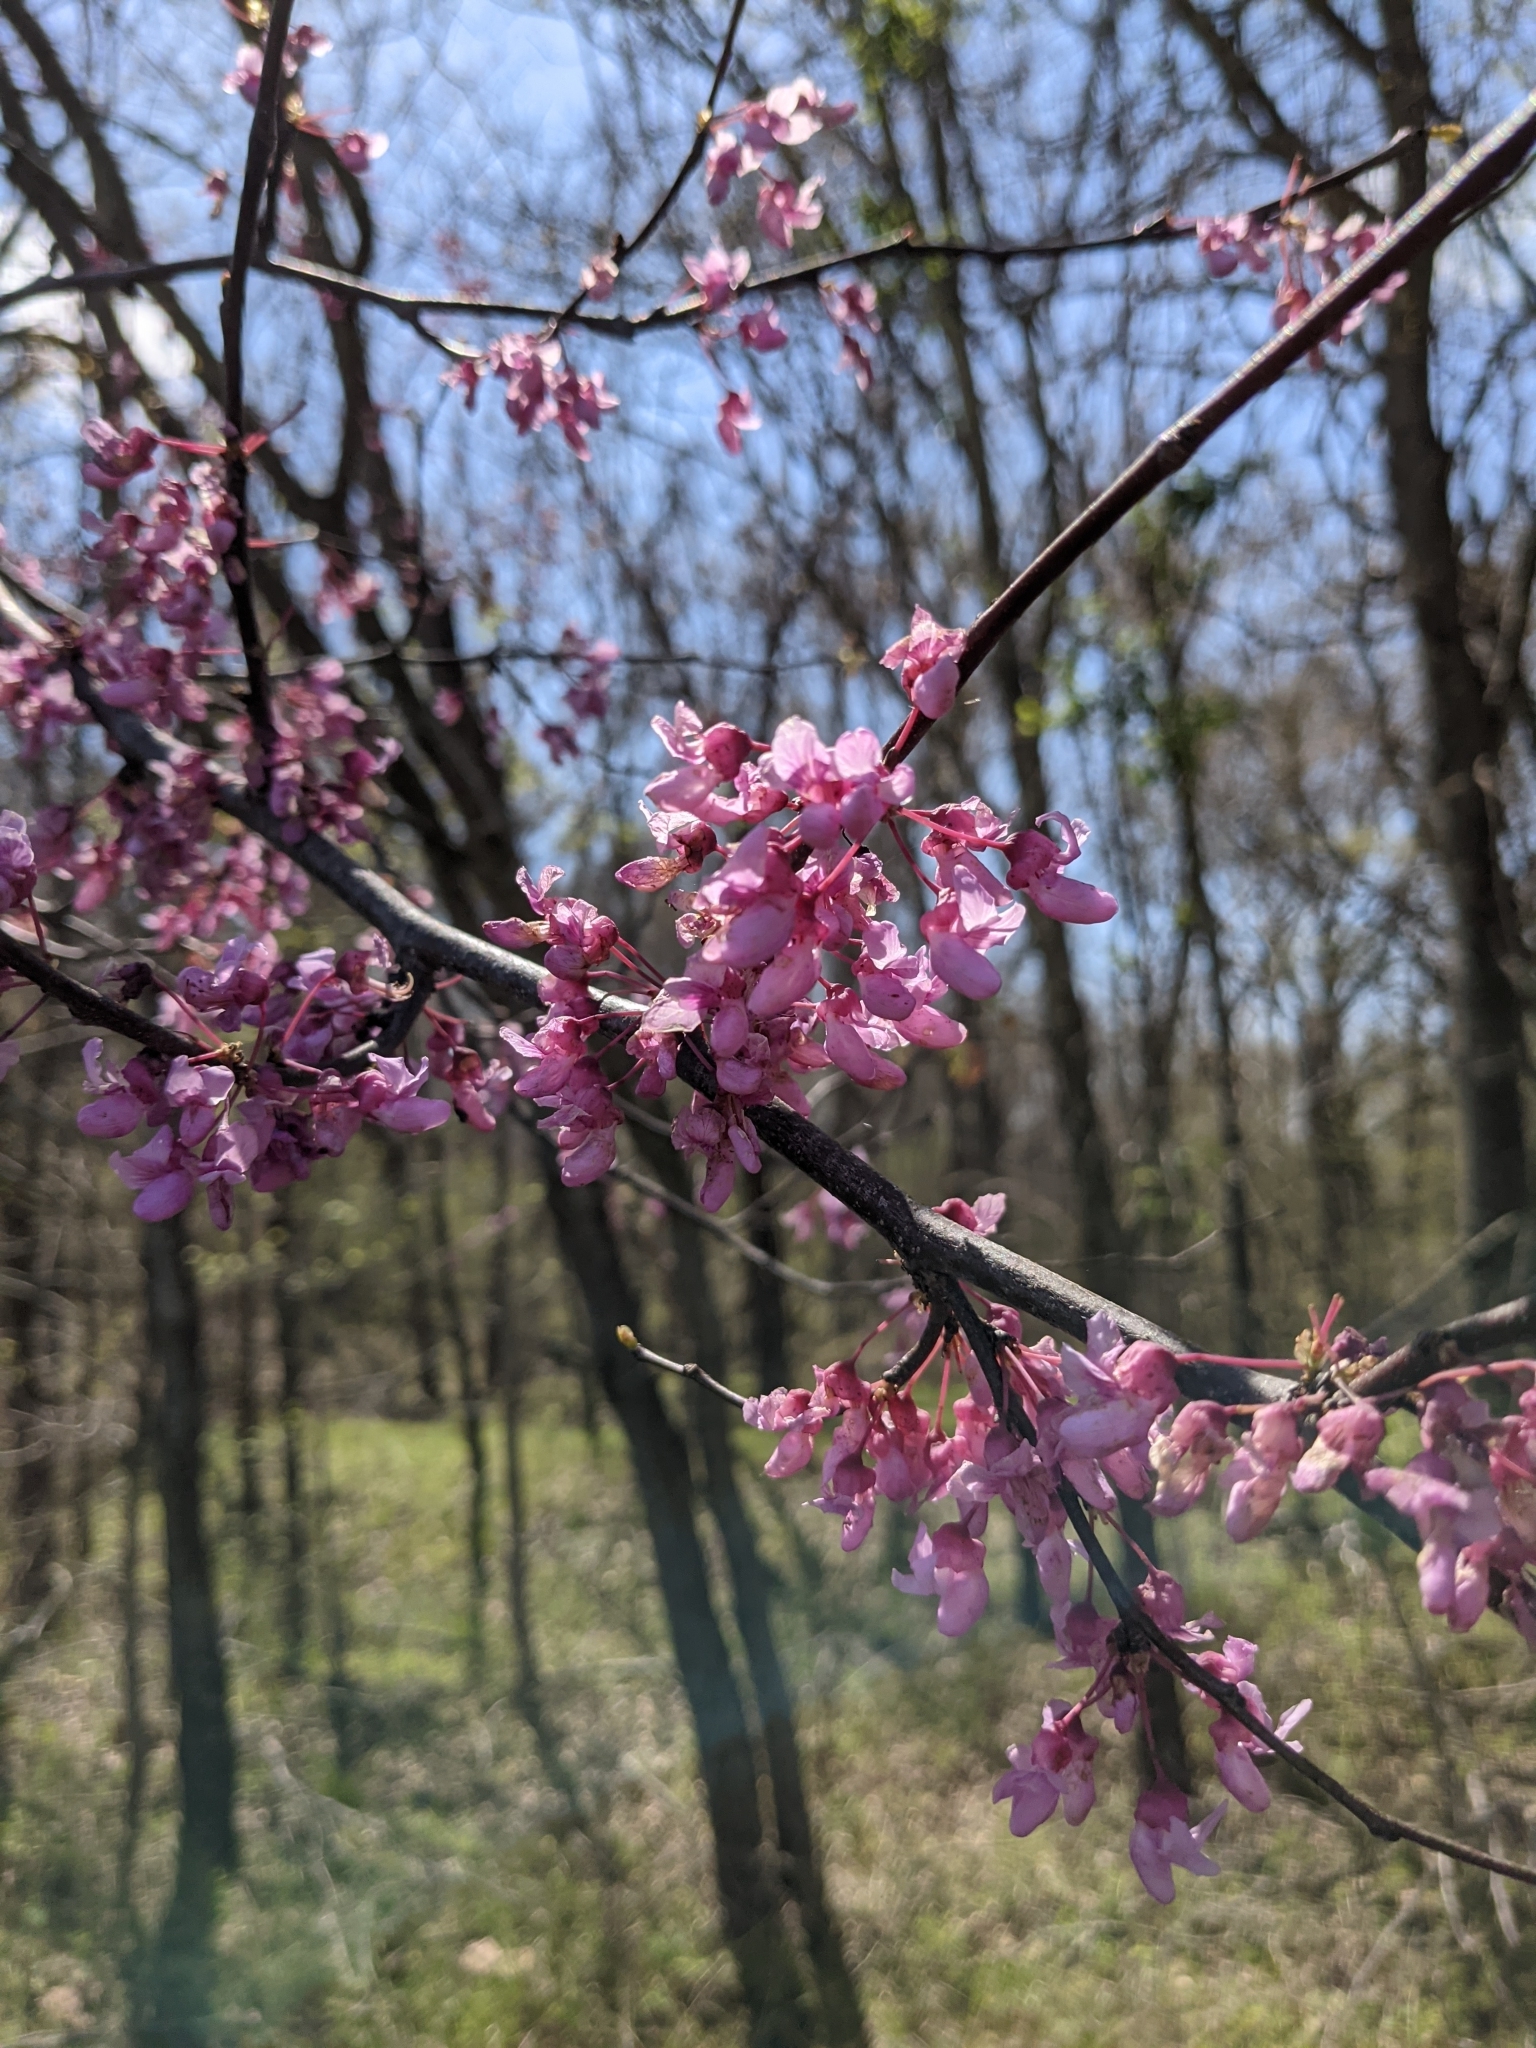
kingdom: Plantae
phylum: Tracheophyta
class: Magnoliopsida
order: Fabales
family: Fabaceae
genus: Cercis
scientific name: Cercis canadensis
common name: Eastern redbud
